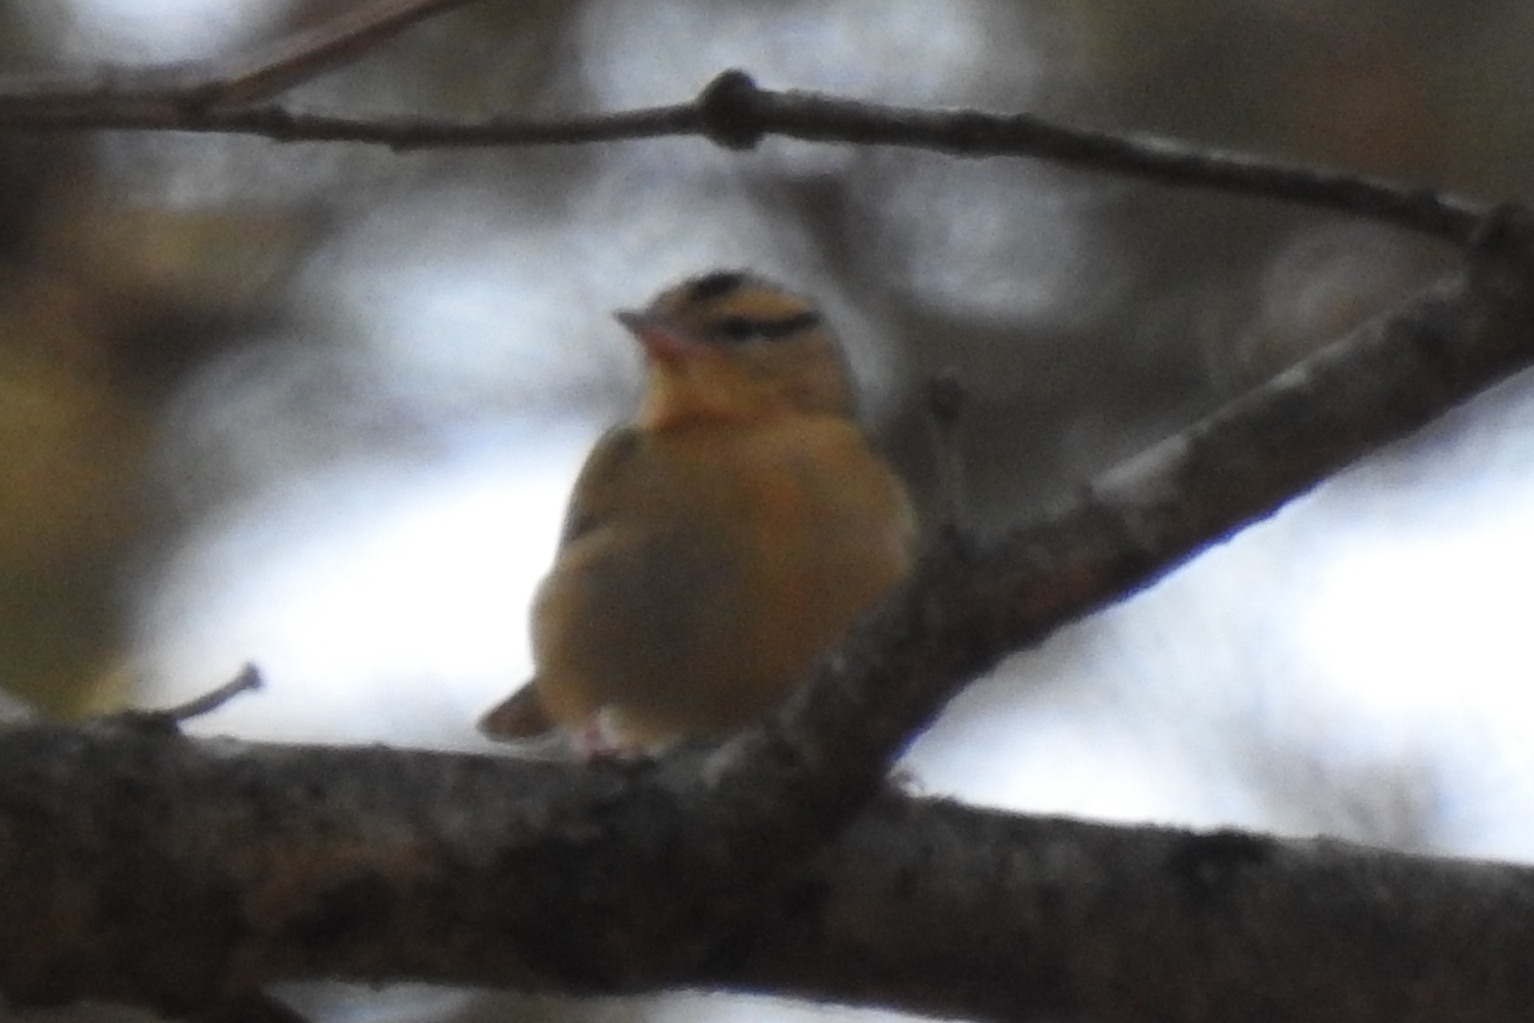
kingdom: Animalia
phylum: Chordata
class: Aves
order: Passeriformes
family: Parulidae
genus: Helmitheros
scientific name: Helmitheros vermivorum
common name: Worm-eating warbler
